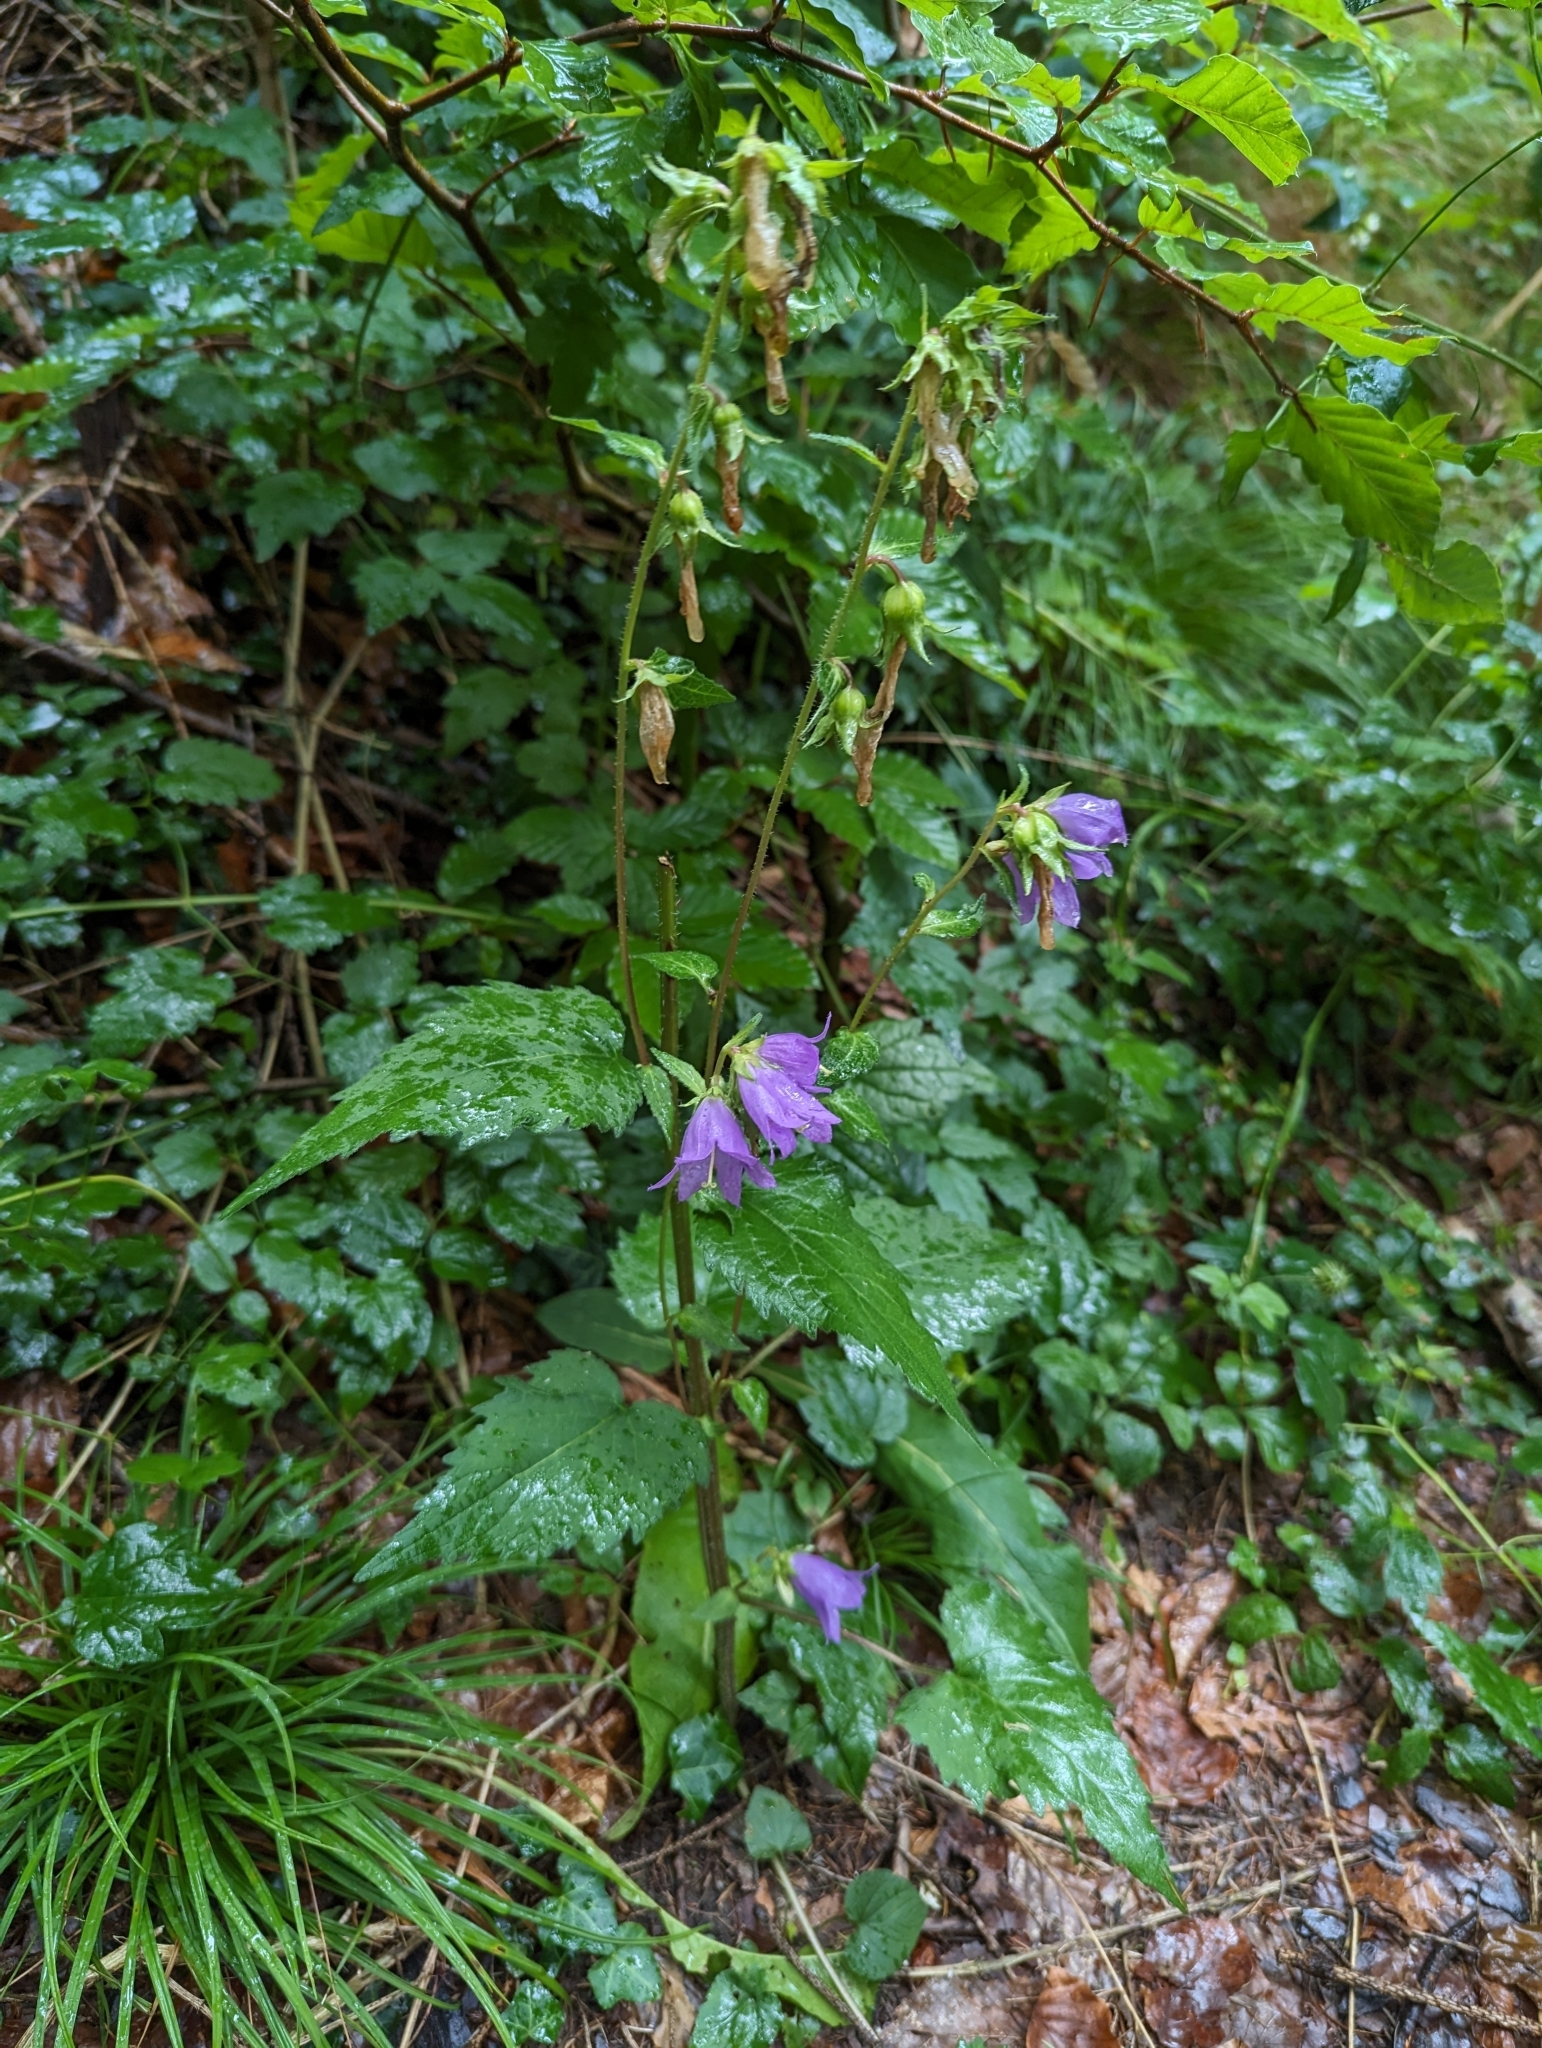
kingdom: Plantae
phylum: Tracheophyta
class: Magnoliopsida
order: Asterales
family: Campanulaceae
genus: Campanula
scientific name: Campanula trachelium
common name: Nettle-leaved bellflower
